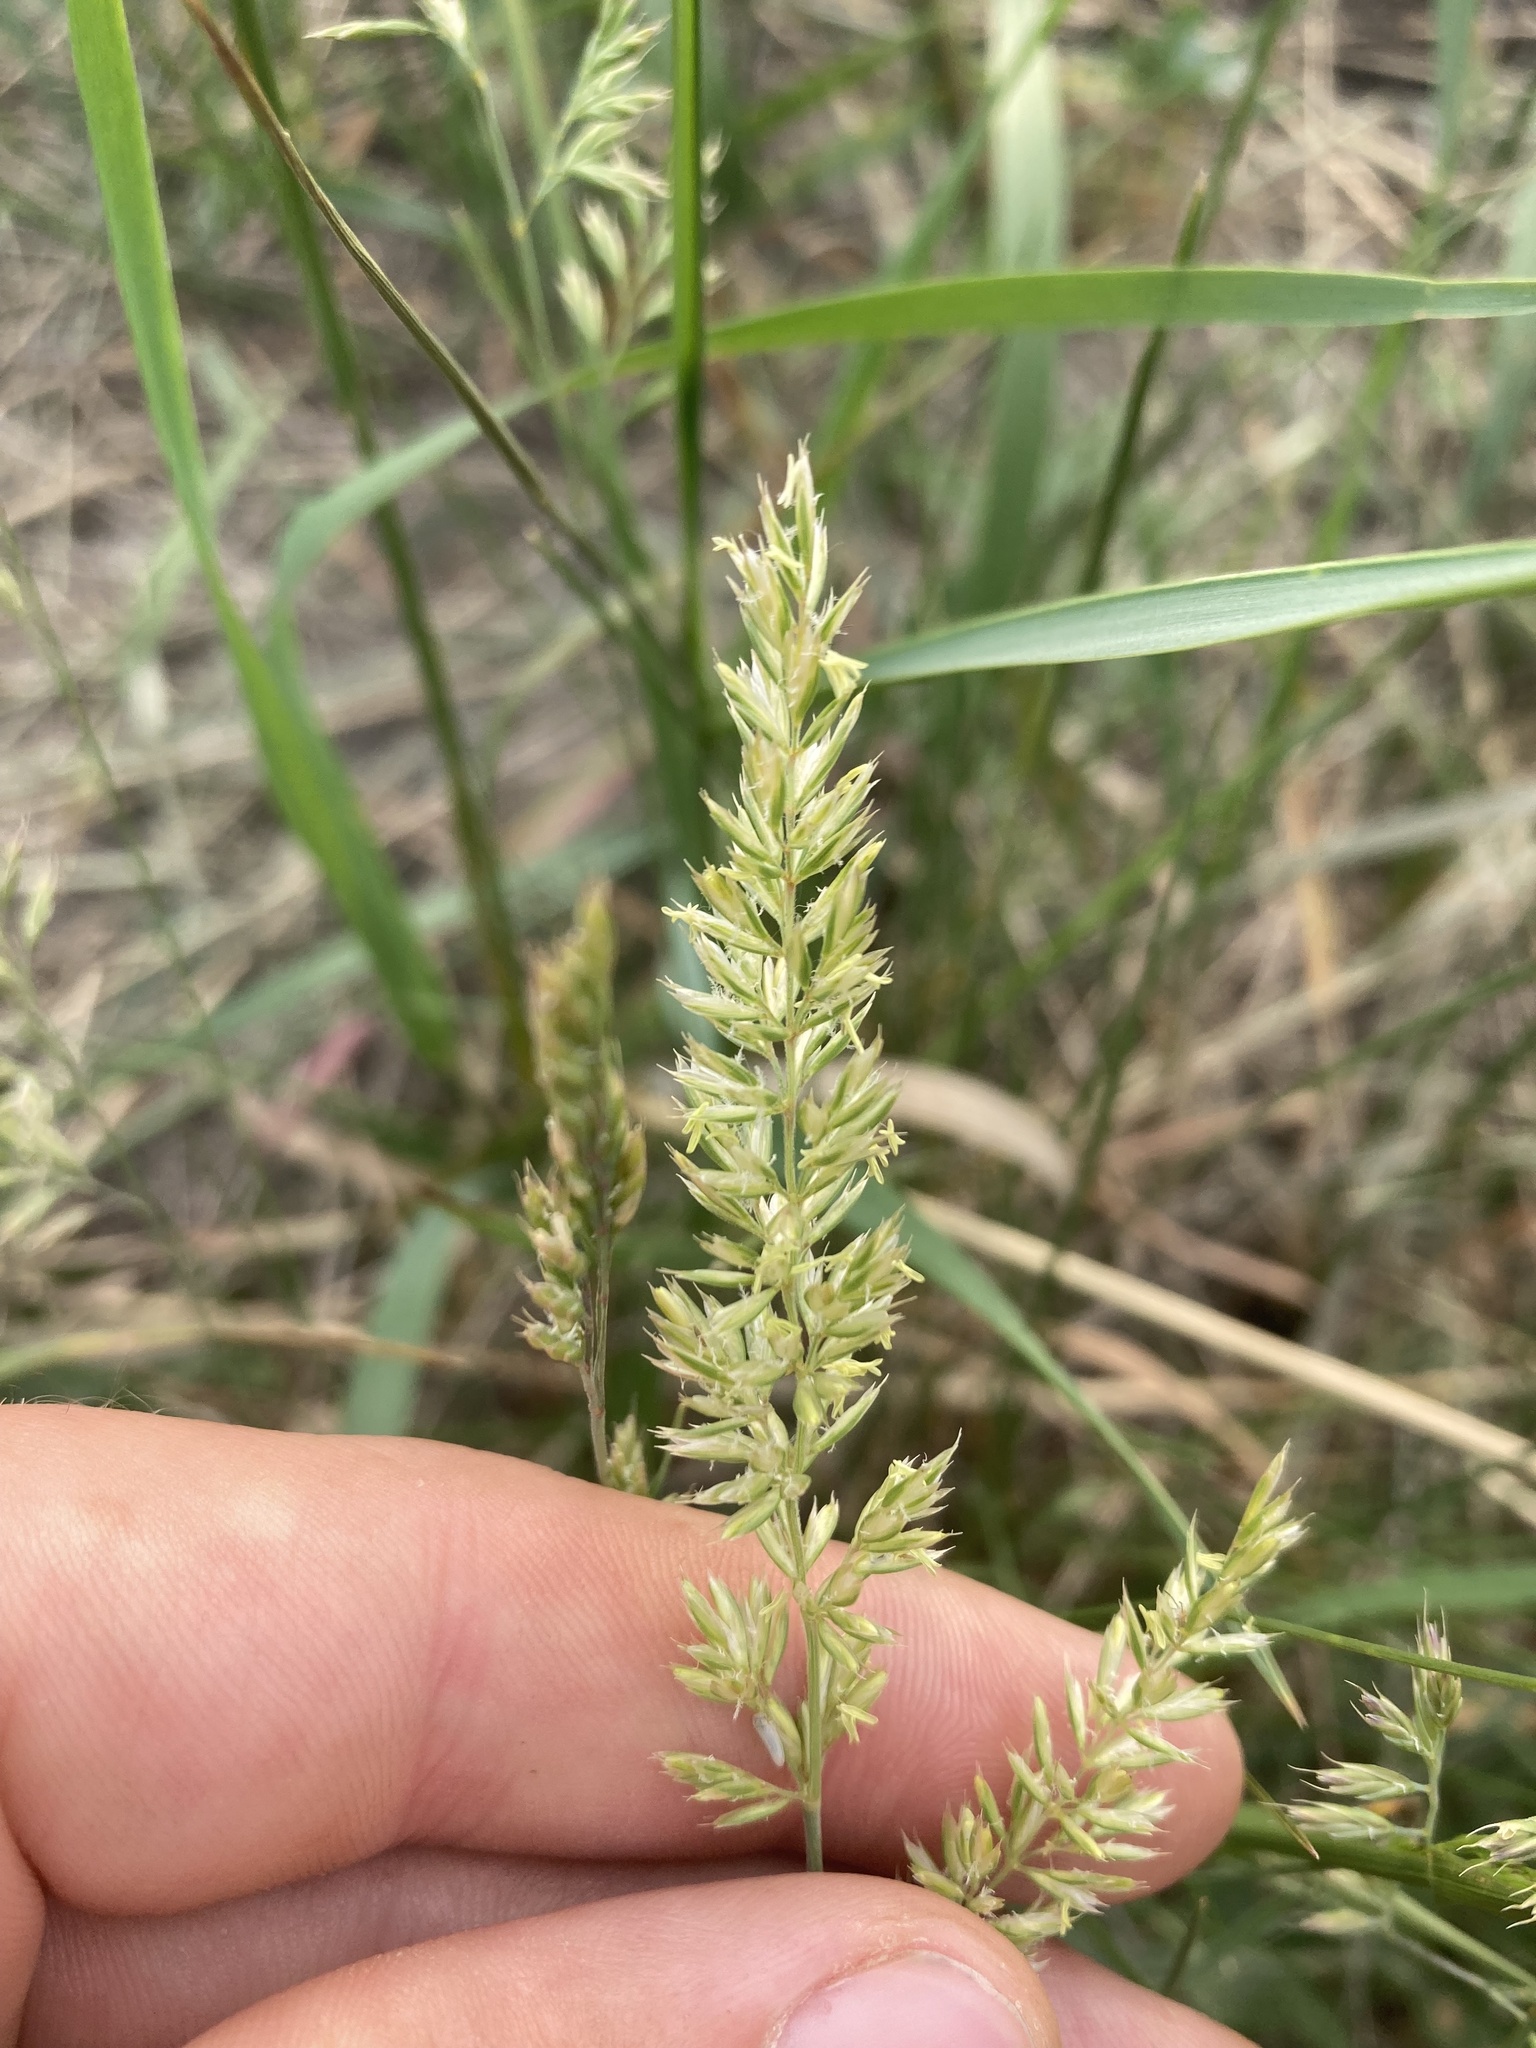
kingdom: Plantae
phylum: Tracheophyta
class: Liliopsida
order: Poales
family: Poaceae
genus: Koeleria
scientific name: Koeleria macrantha
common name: Crested hair-grass
